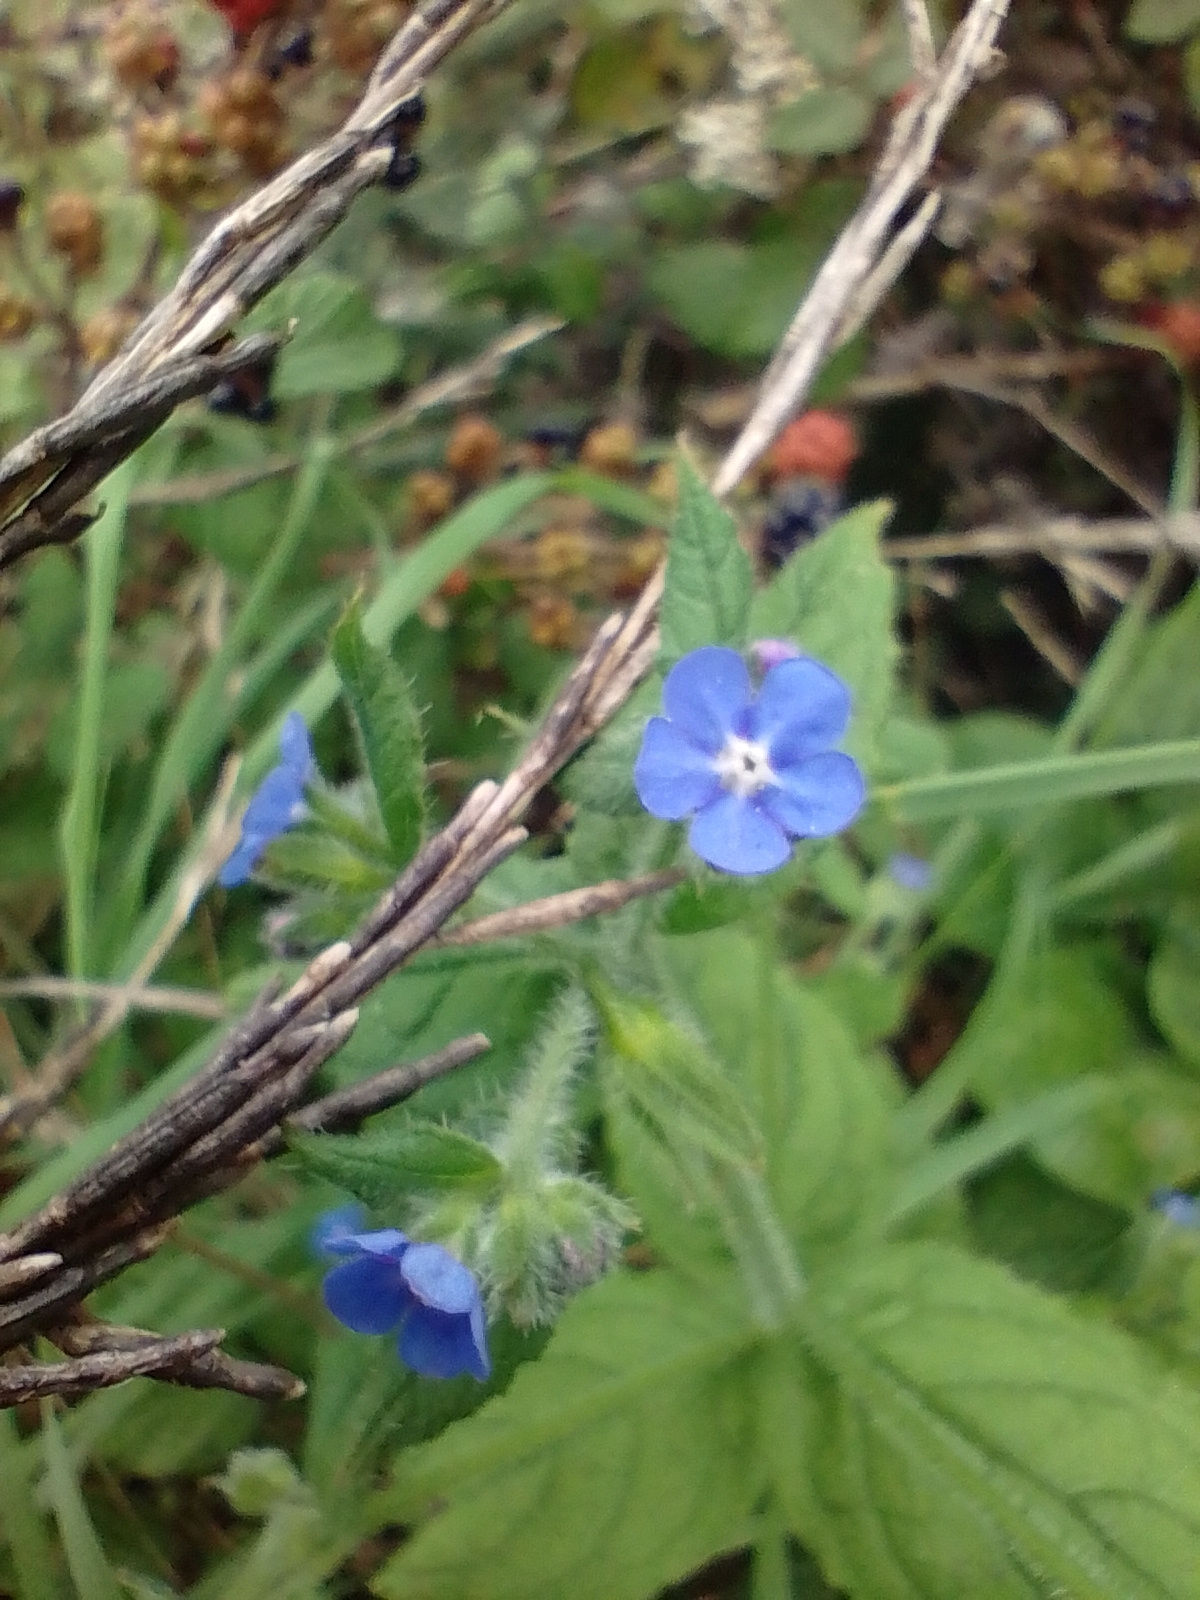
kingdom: Plantae
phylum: Tracheophyta
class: Magnoliopsida
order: Boraginales
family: Boraginaceae
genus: Pentaglottis
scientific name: Pentaglottis sempervirens
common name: Green alkanet
